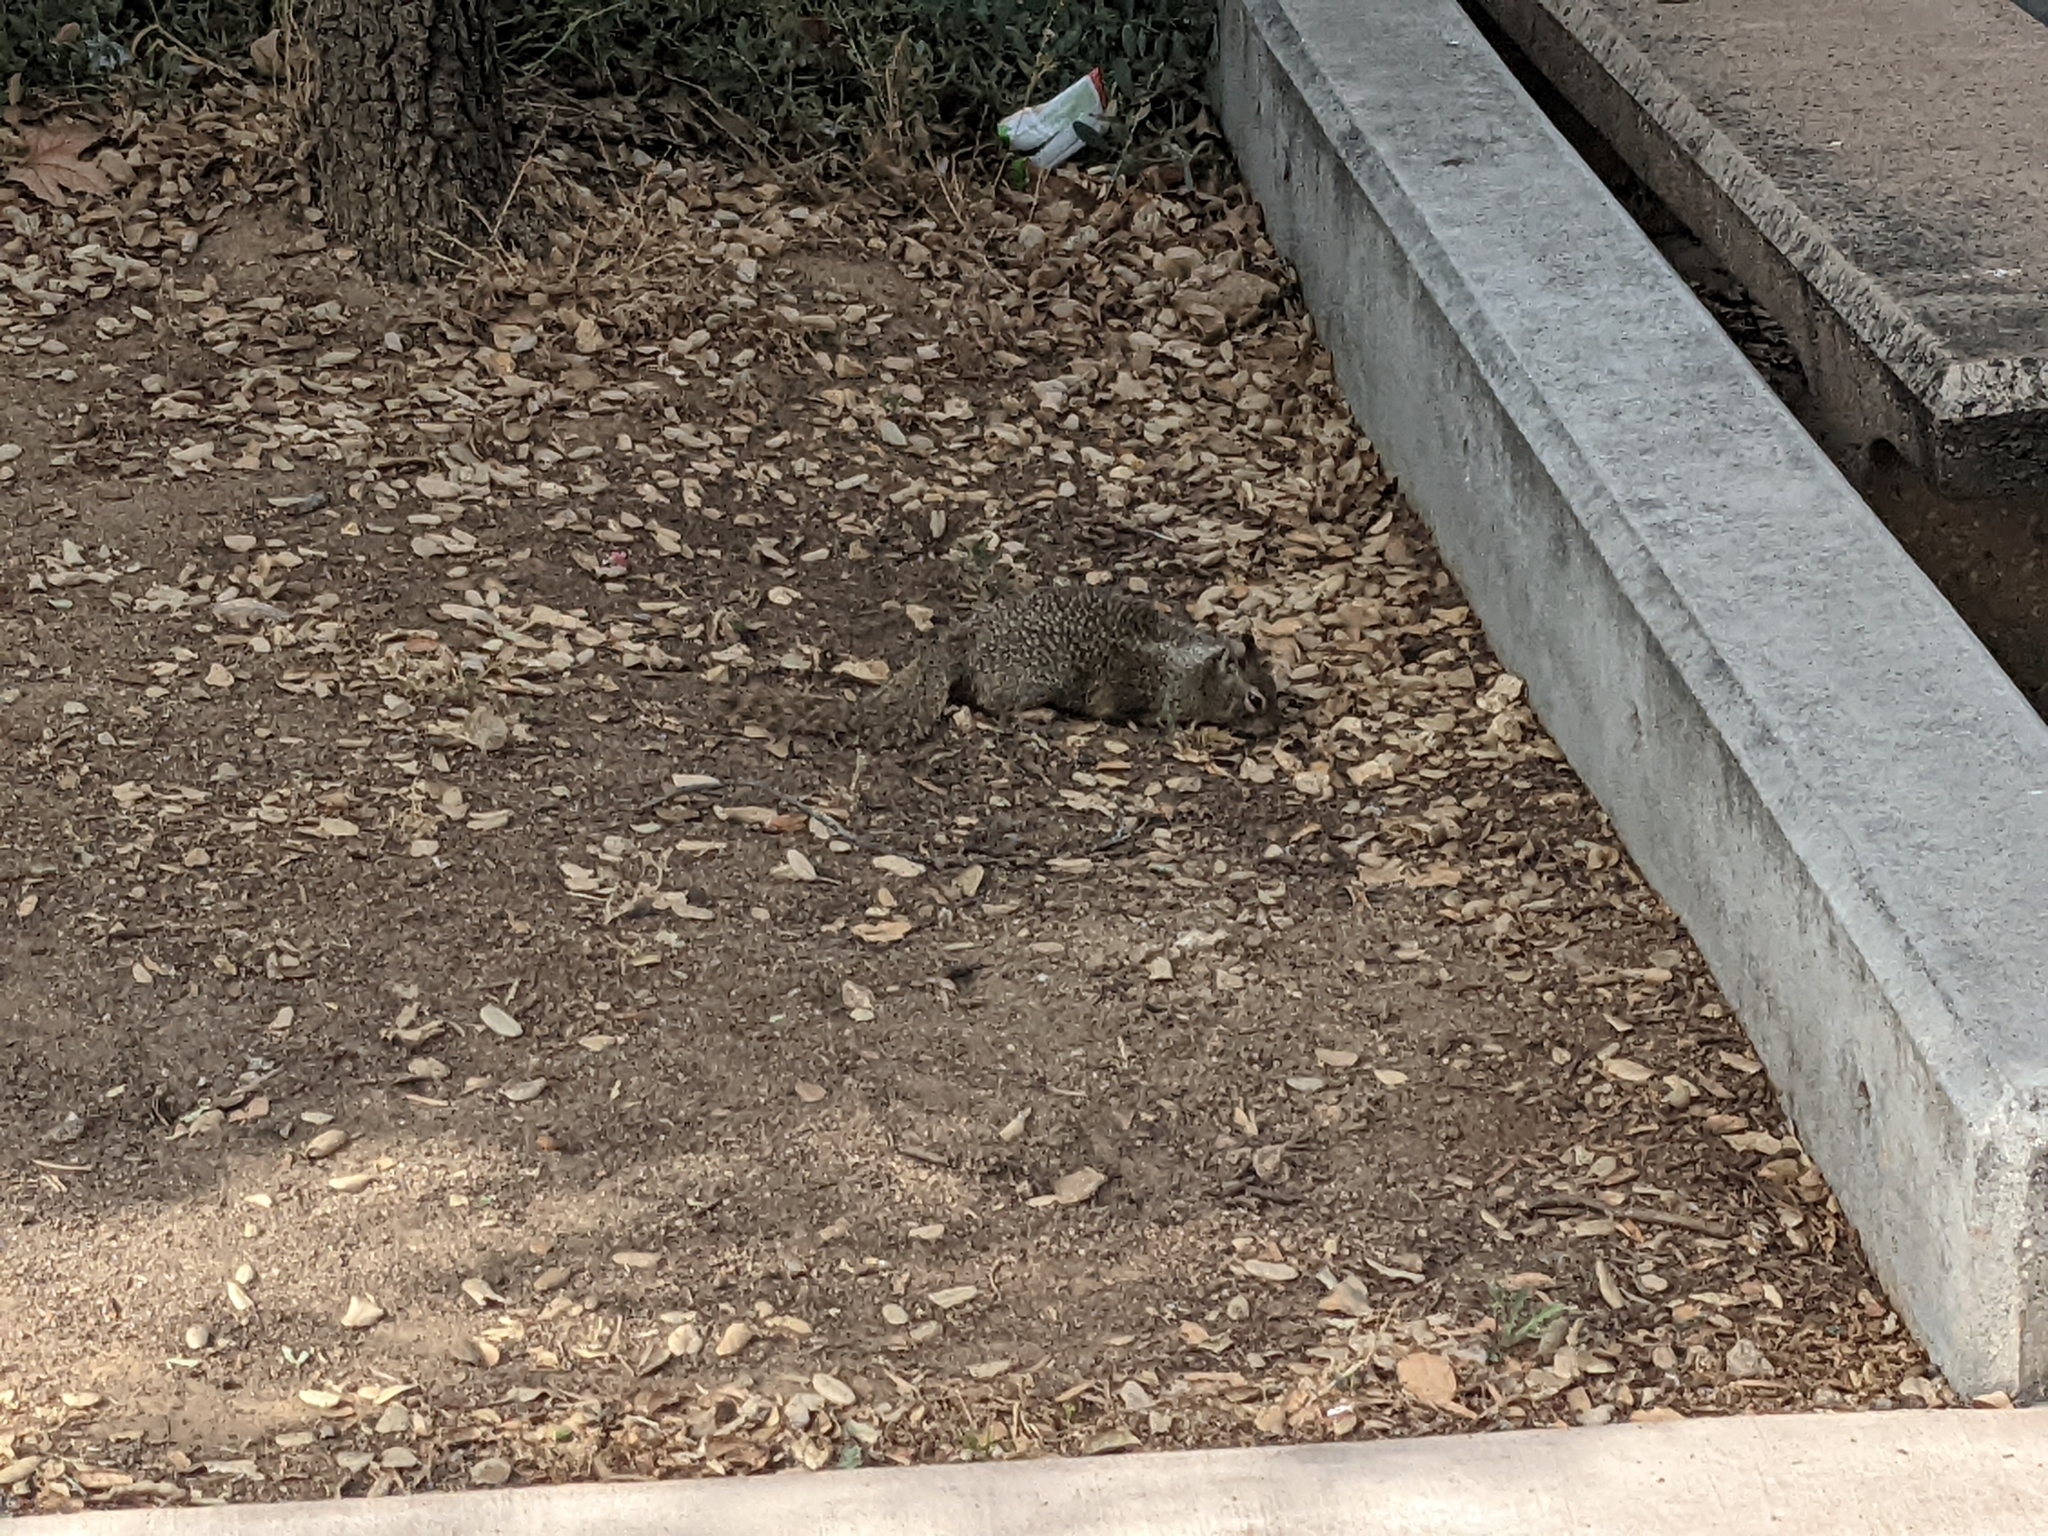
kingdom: Animalia
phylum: Chordata
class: Mammalia
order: Rodentia
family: Sciuridae
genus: Otospermophilus
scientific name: Otospermophilus beecheyi
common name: California ground squirrel
